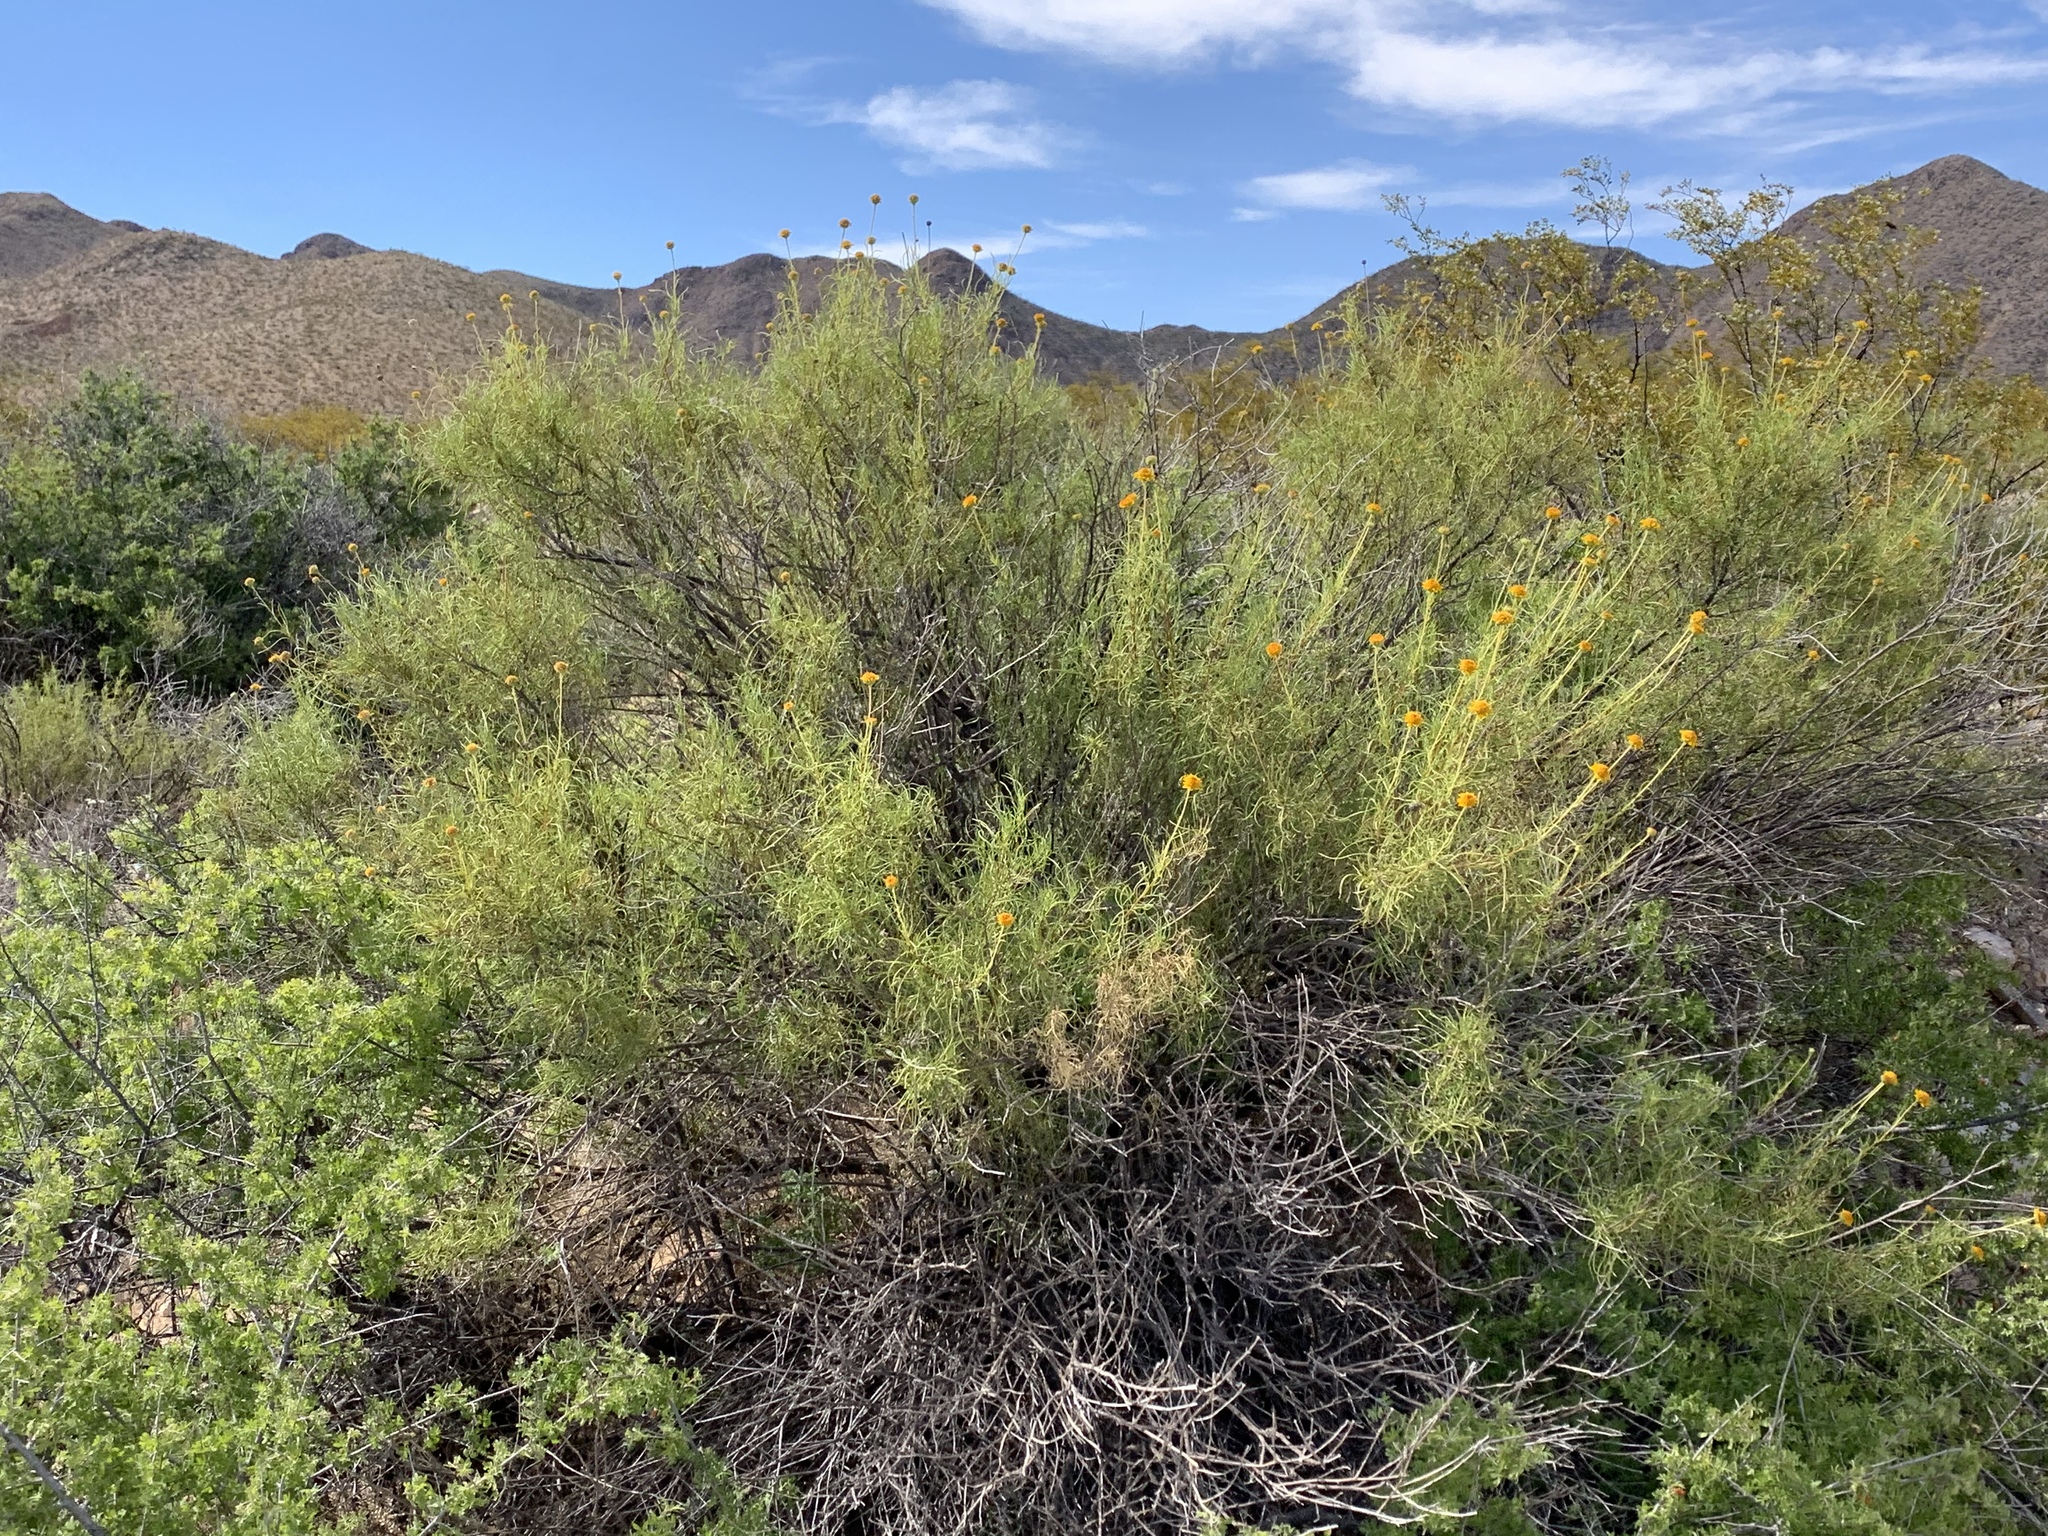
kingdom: Plantae
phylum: Tracheophyta
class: Magnoliopsida
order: Asterales
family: Asteraceae
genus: Sidneya
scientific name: Sidneya tenuifolia
